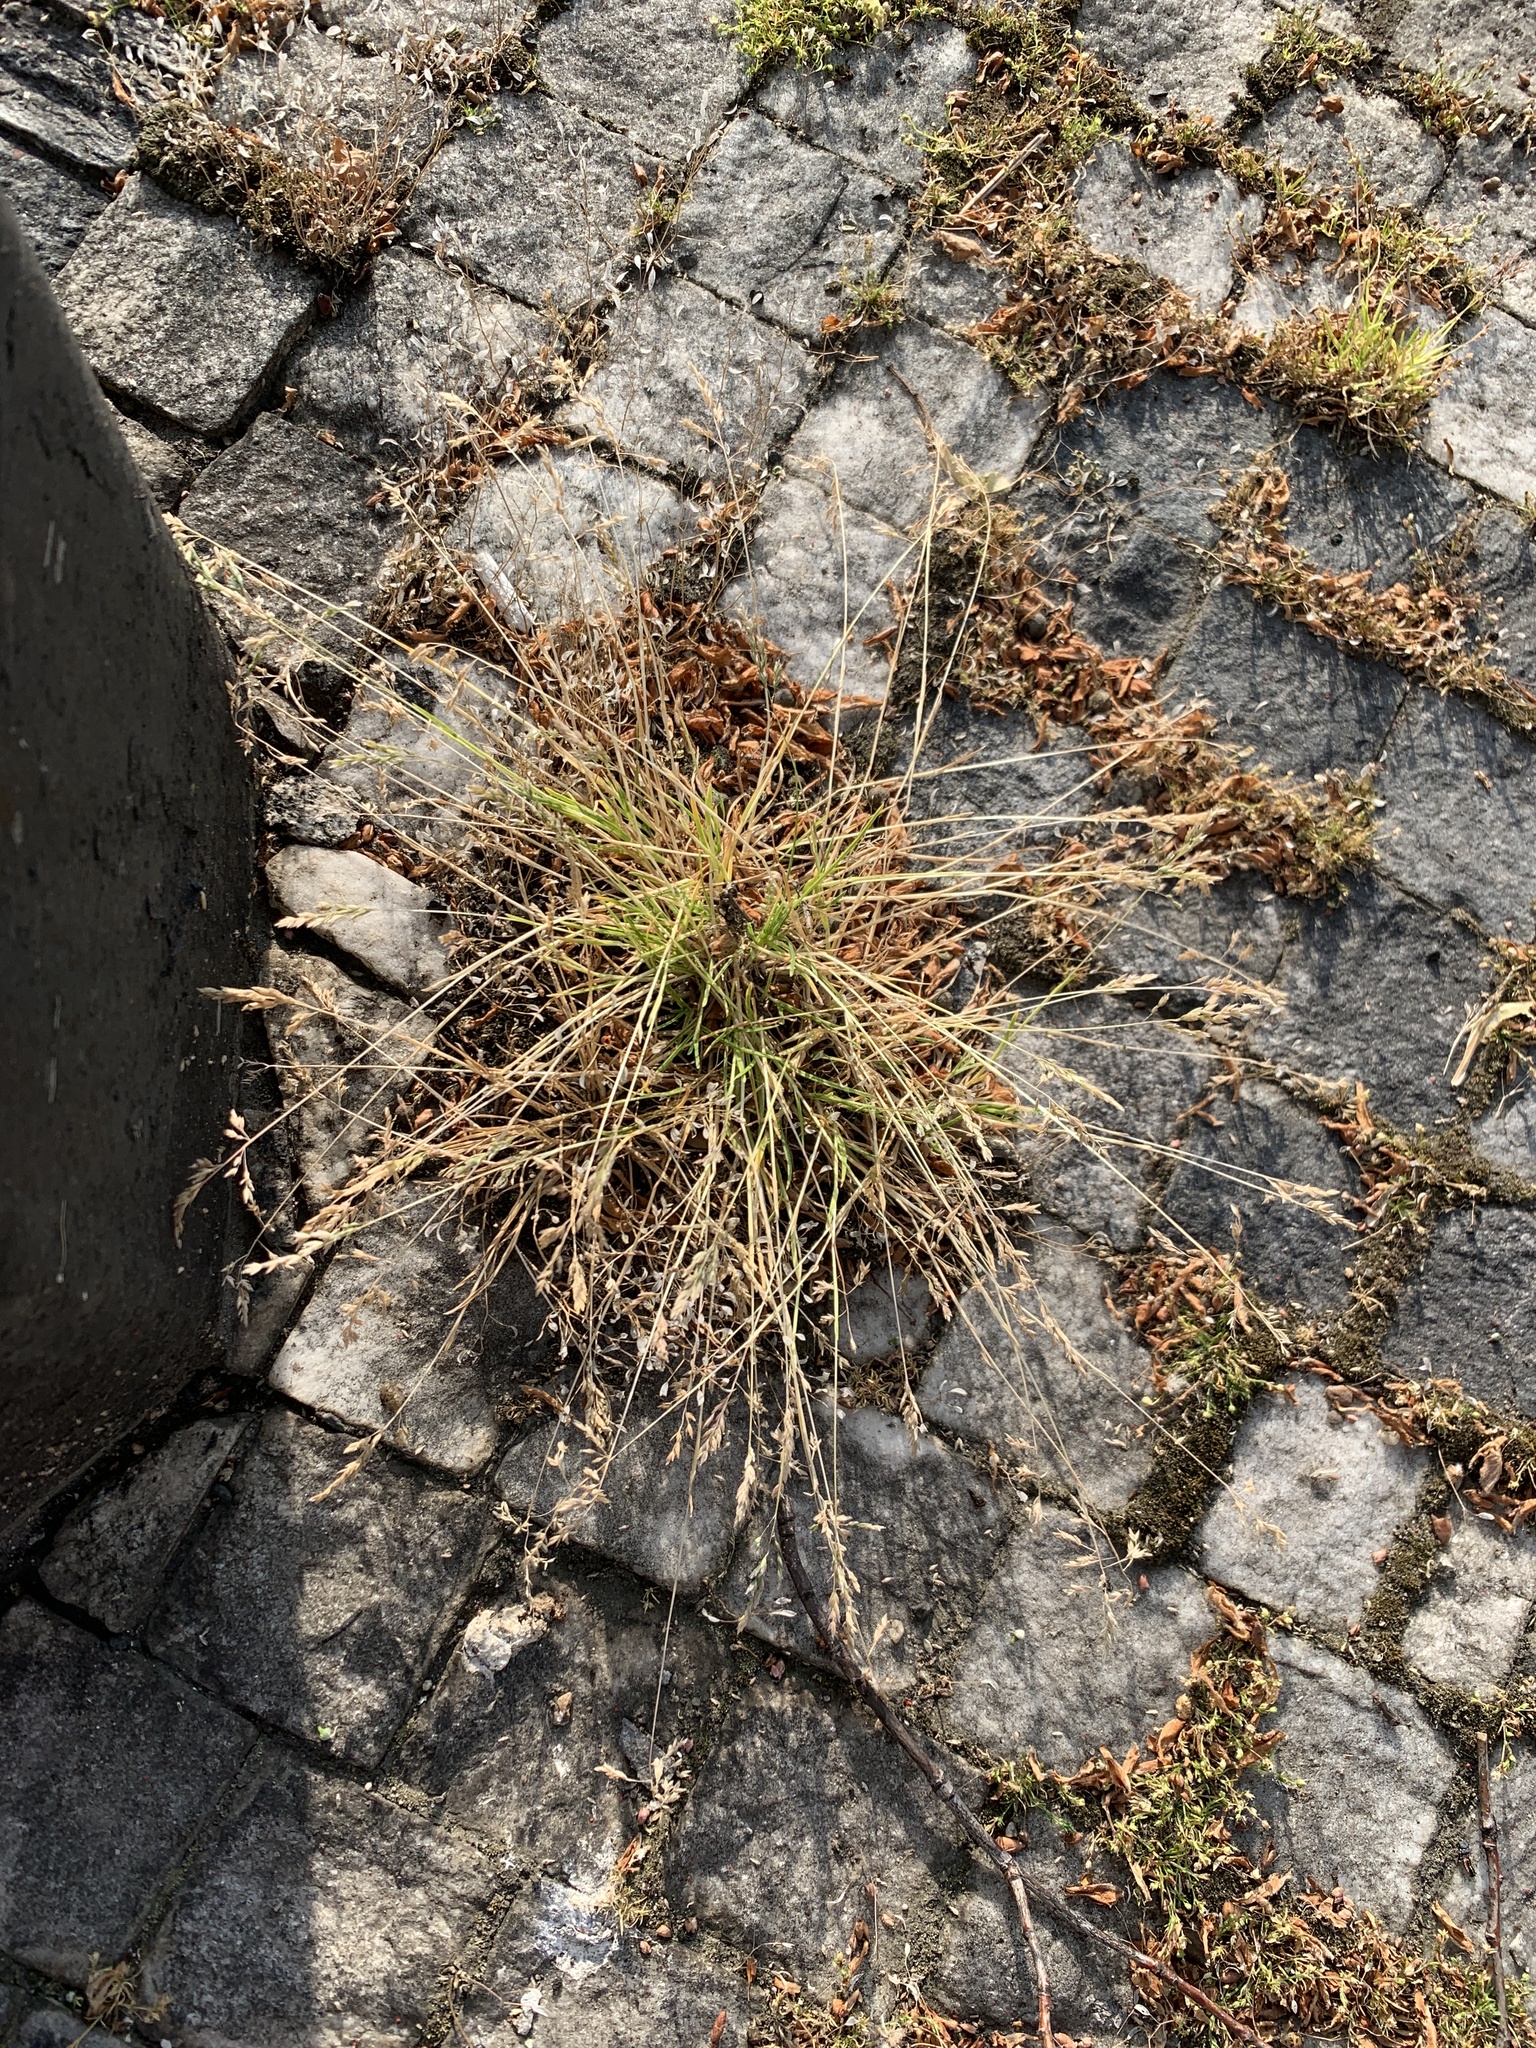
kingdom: Plantae
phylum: Tracheophyta
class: Liliopsida
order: Poales
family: Poaceae
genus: Hordeum
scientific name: Hordeum murinum
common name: Wall barley
